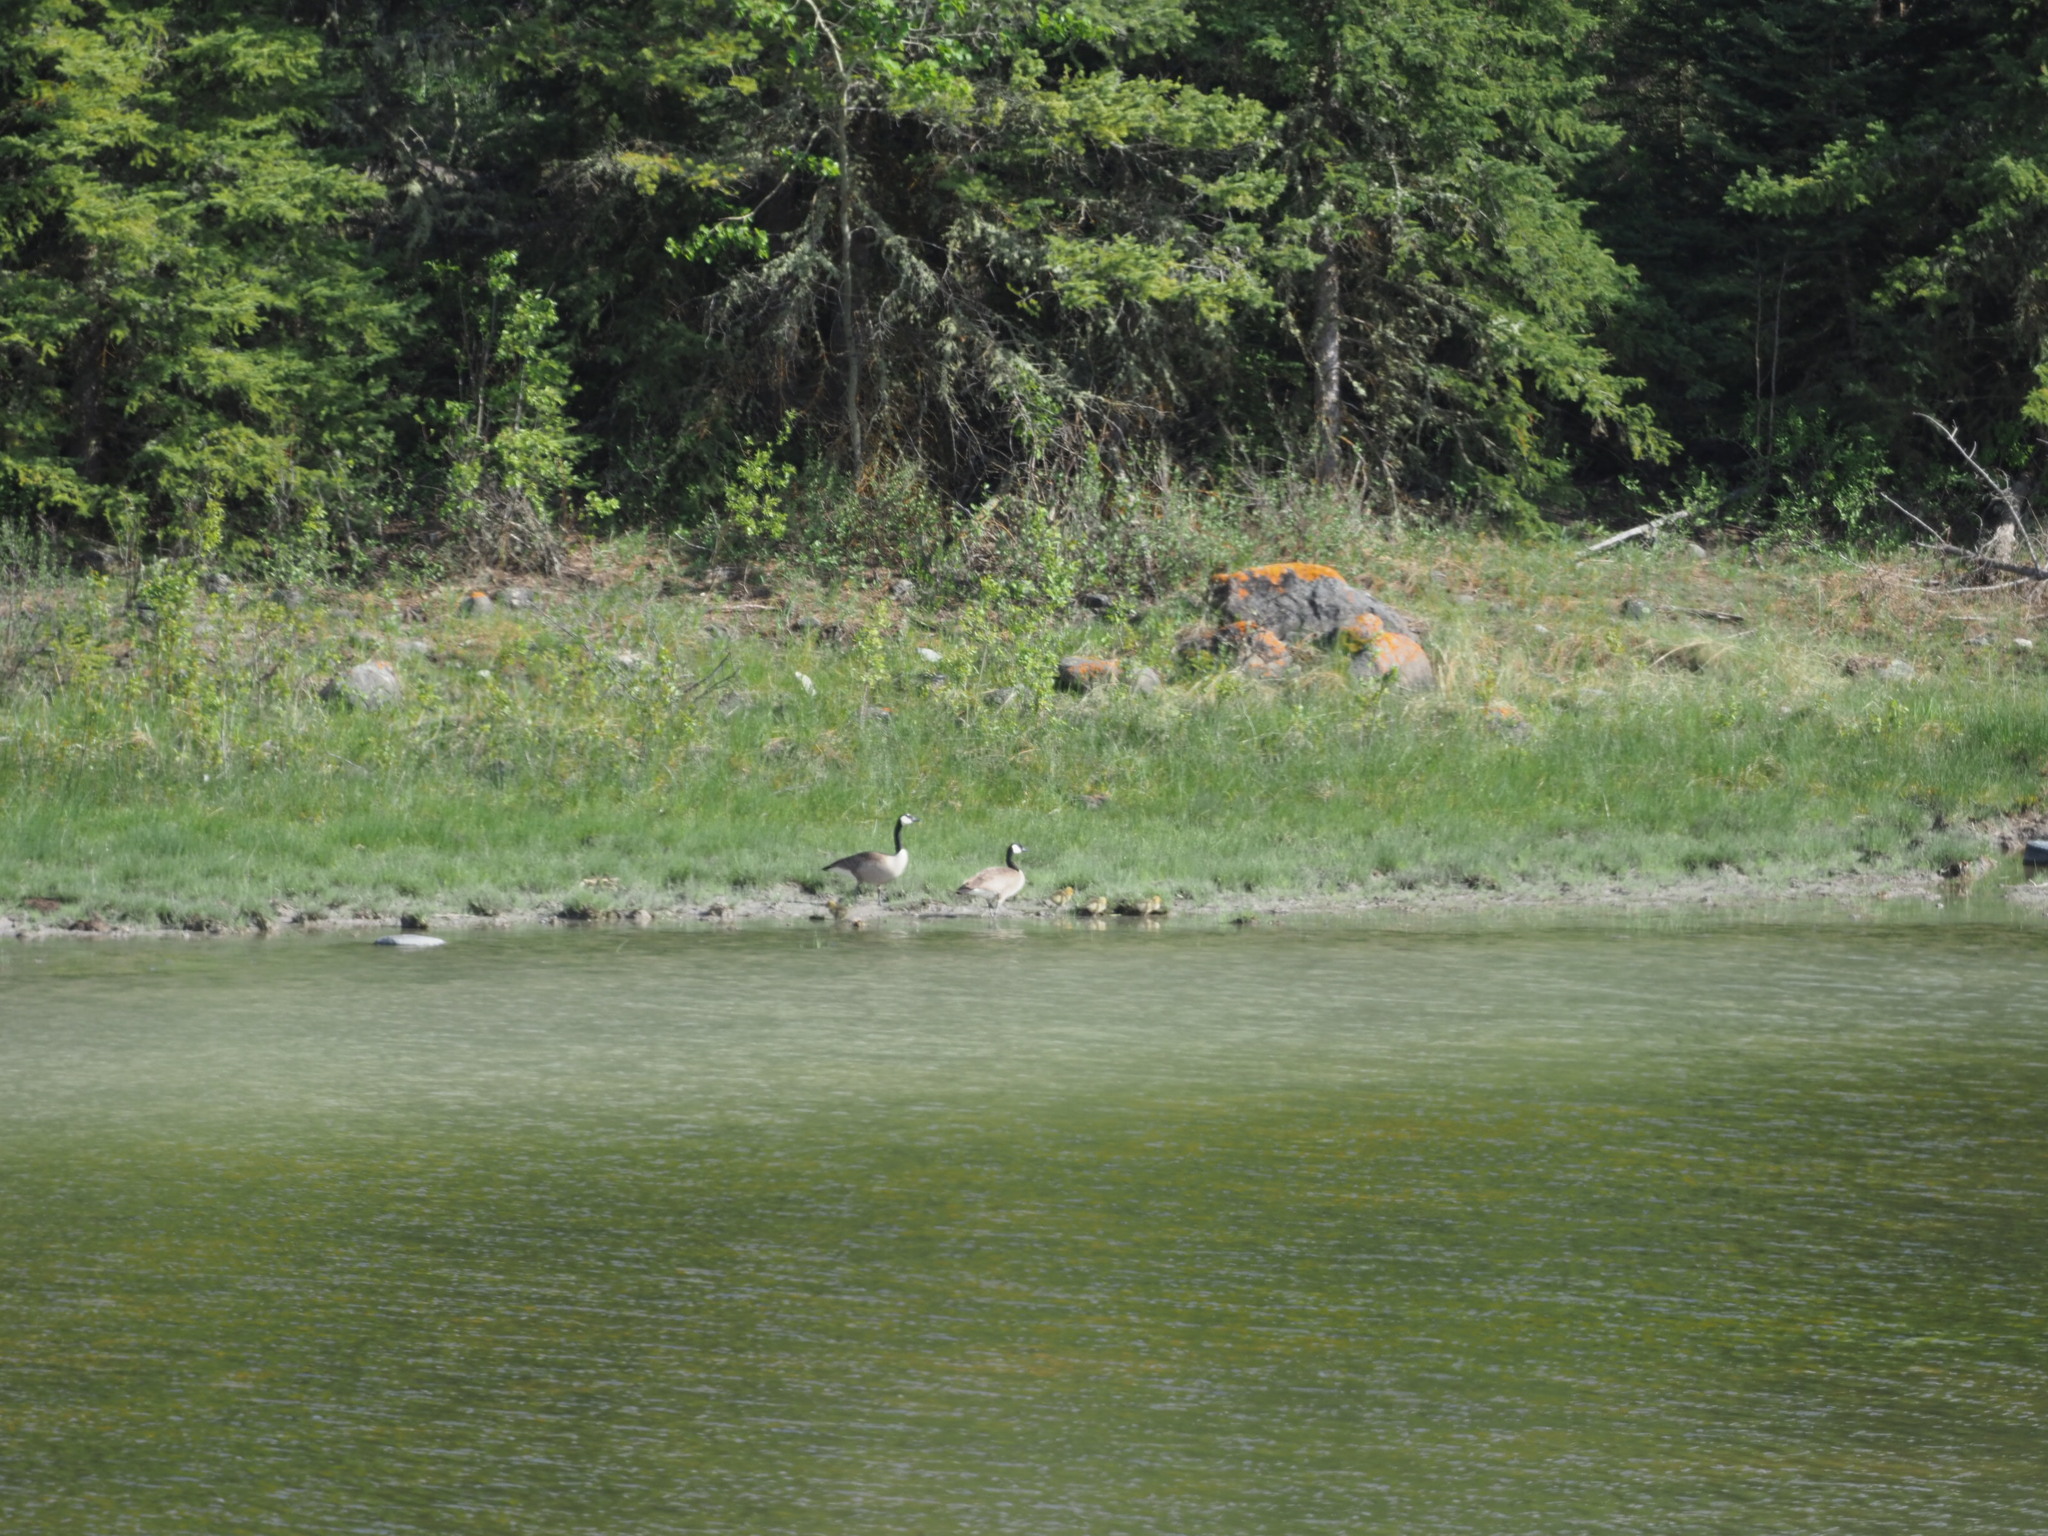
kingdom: Animalia
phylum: Chordata
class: Aves
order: Anseriformes
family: Anatidae
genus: Branta
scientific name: Branta canadensis
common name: Canada goose
